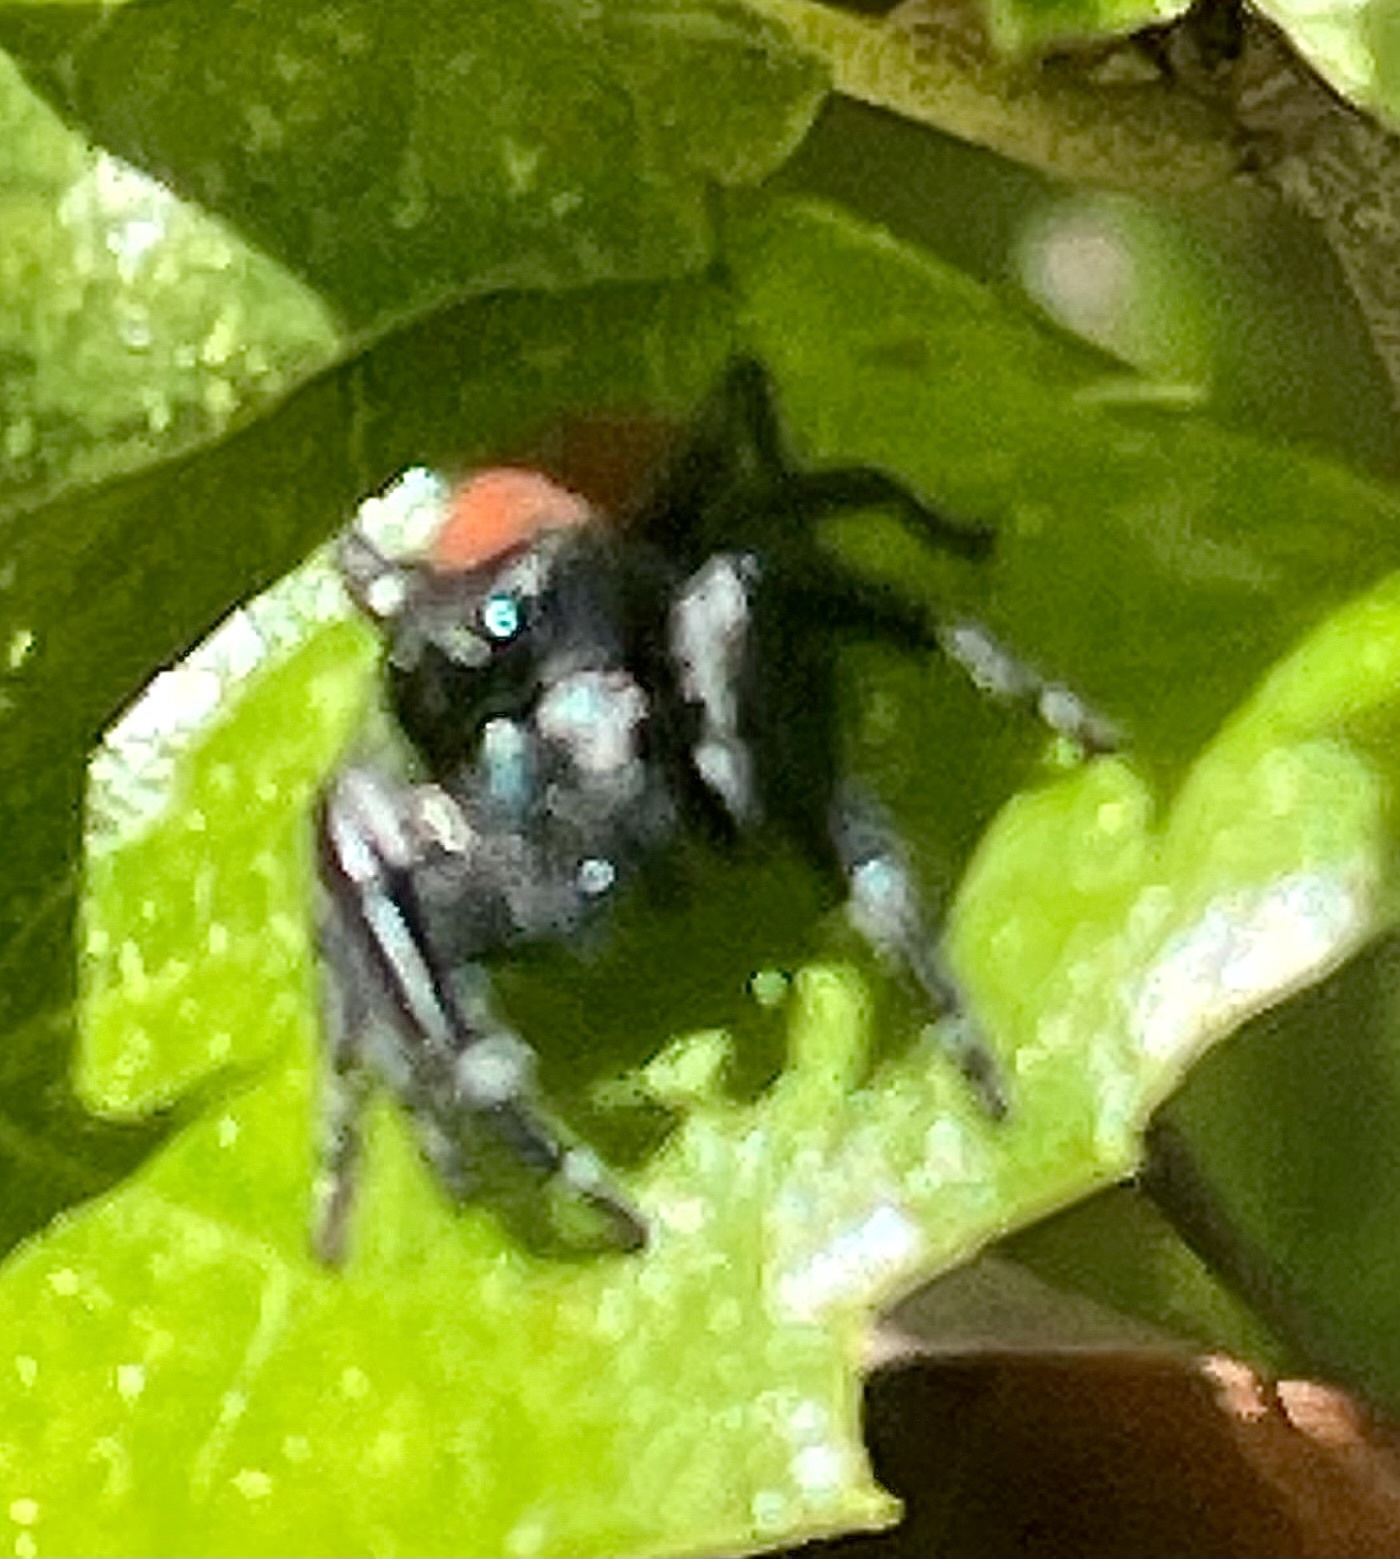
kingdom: Animalia
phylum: Arthropoda
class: Arachnida
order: Araneae
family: Salticidae
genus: Phidippus
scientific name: Phidippus johnsoni
